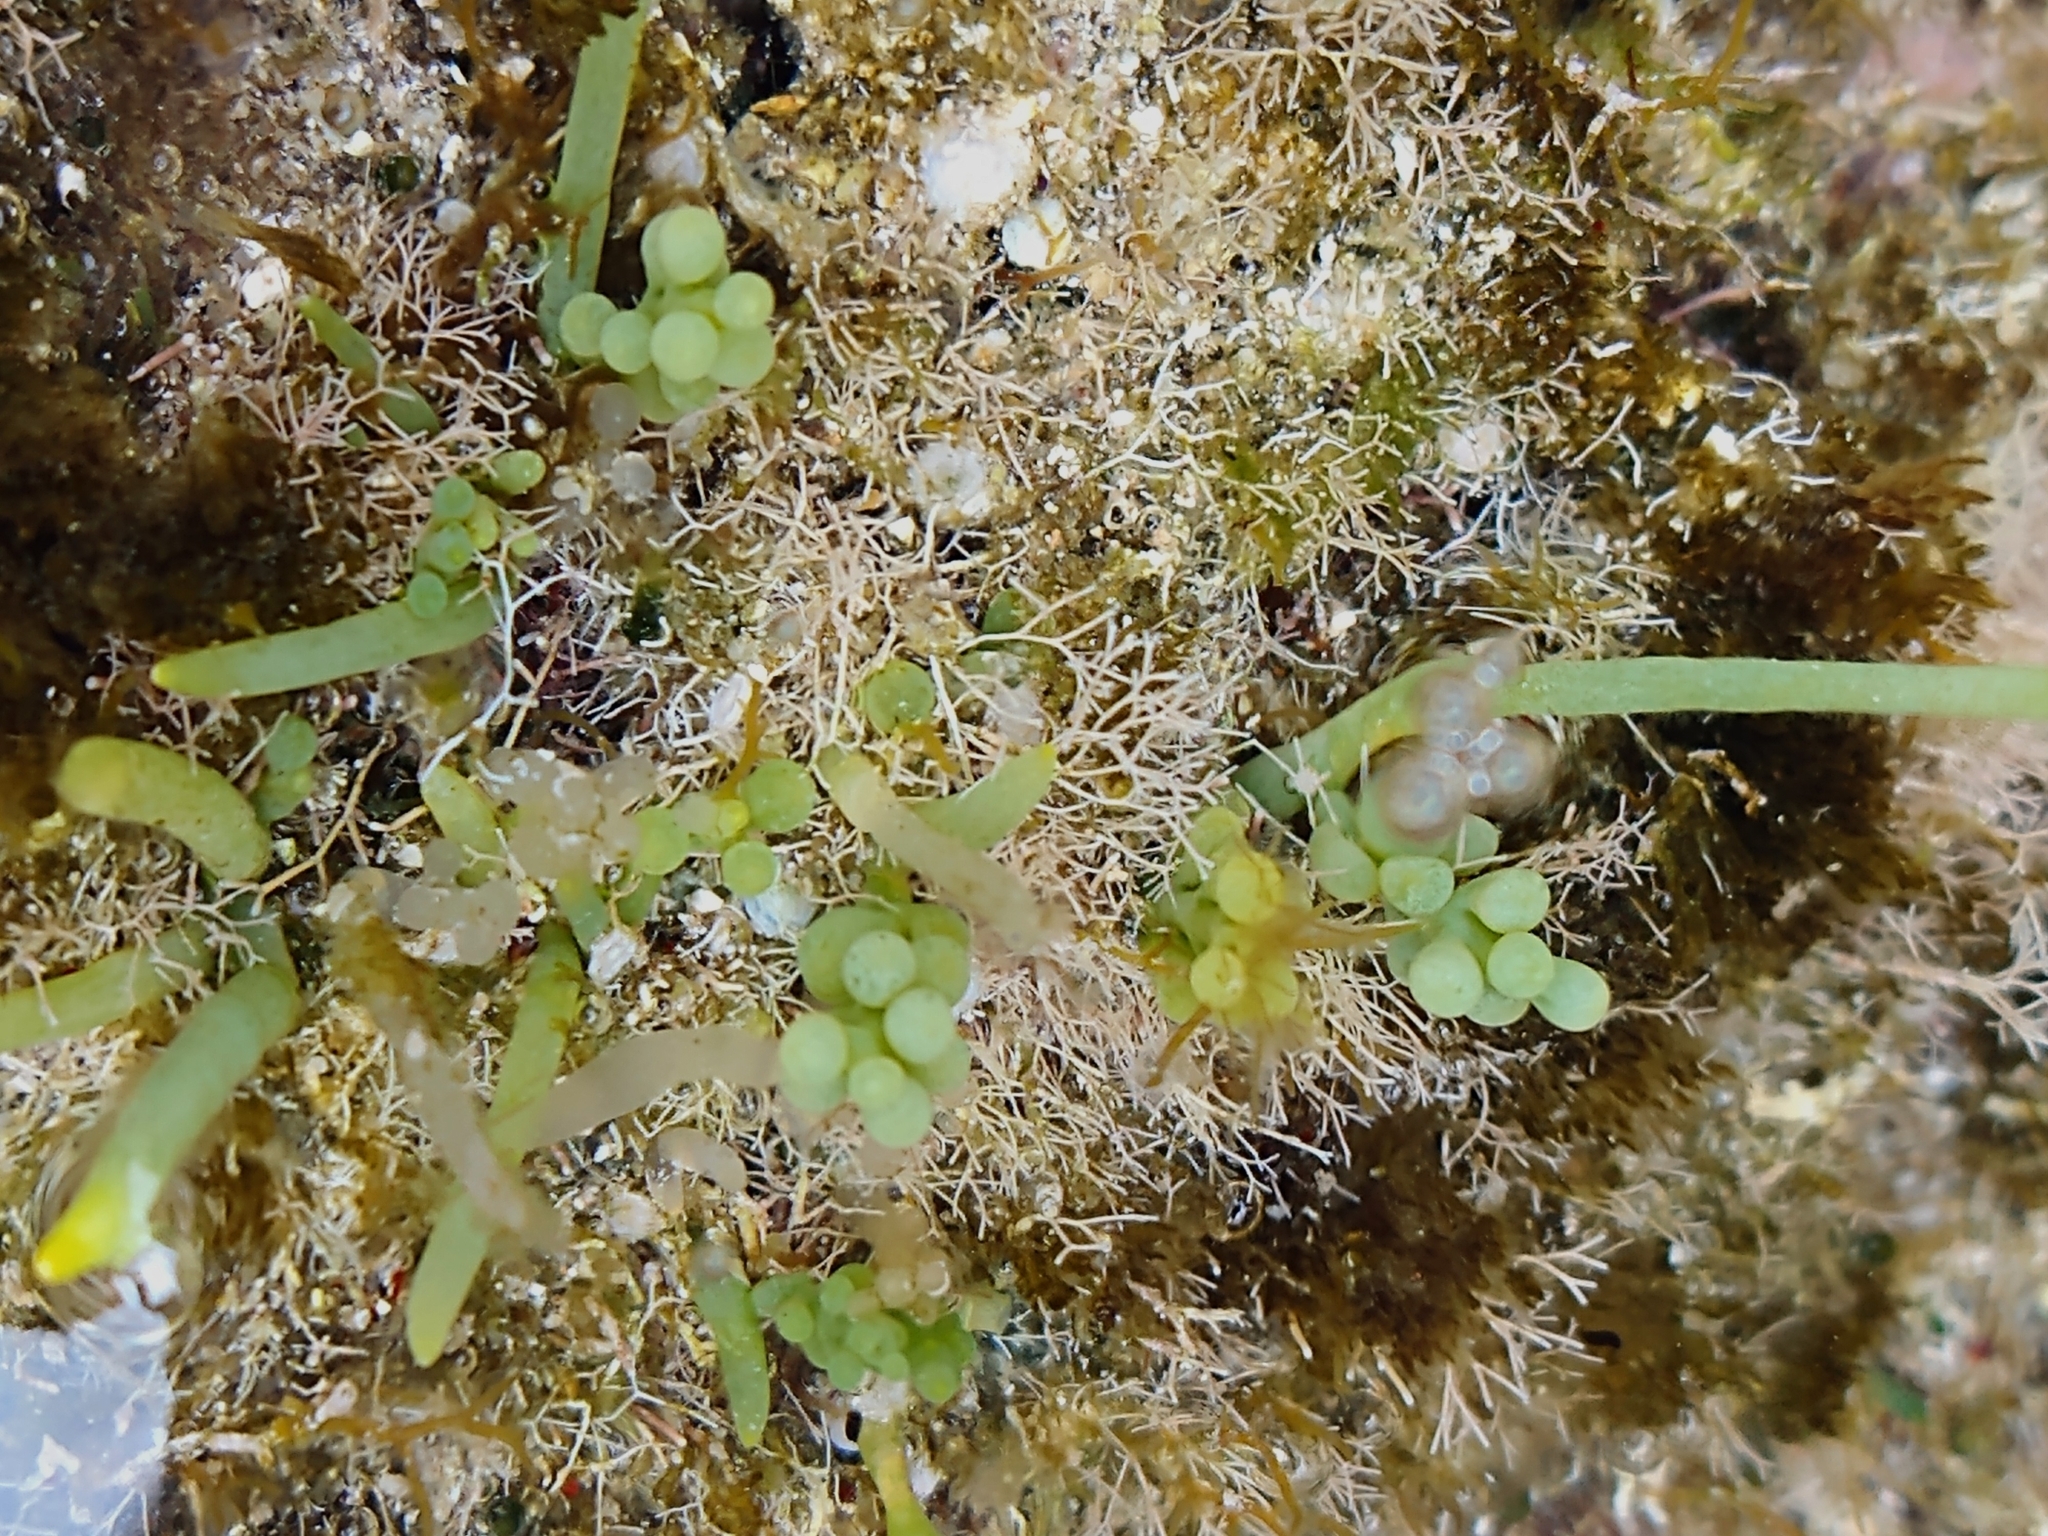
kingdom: Plantae
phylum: Chlorophyta
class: Ulvophyceae
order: Bryopsidales
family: Caulerpaceae
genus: Caulerpa
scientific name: Caulerpa racemosa
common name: Green grape algae
